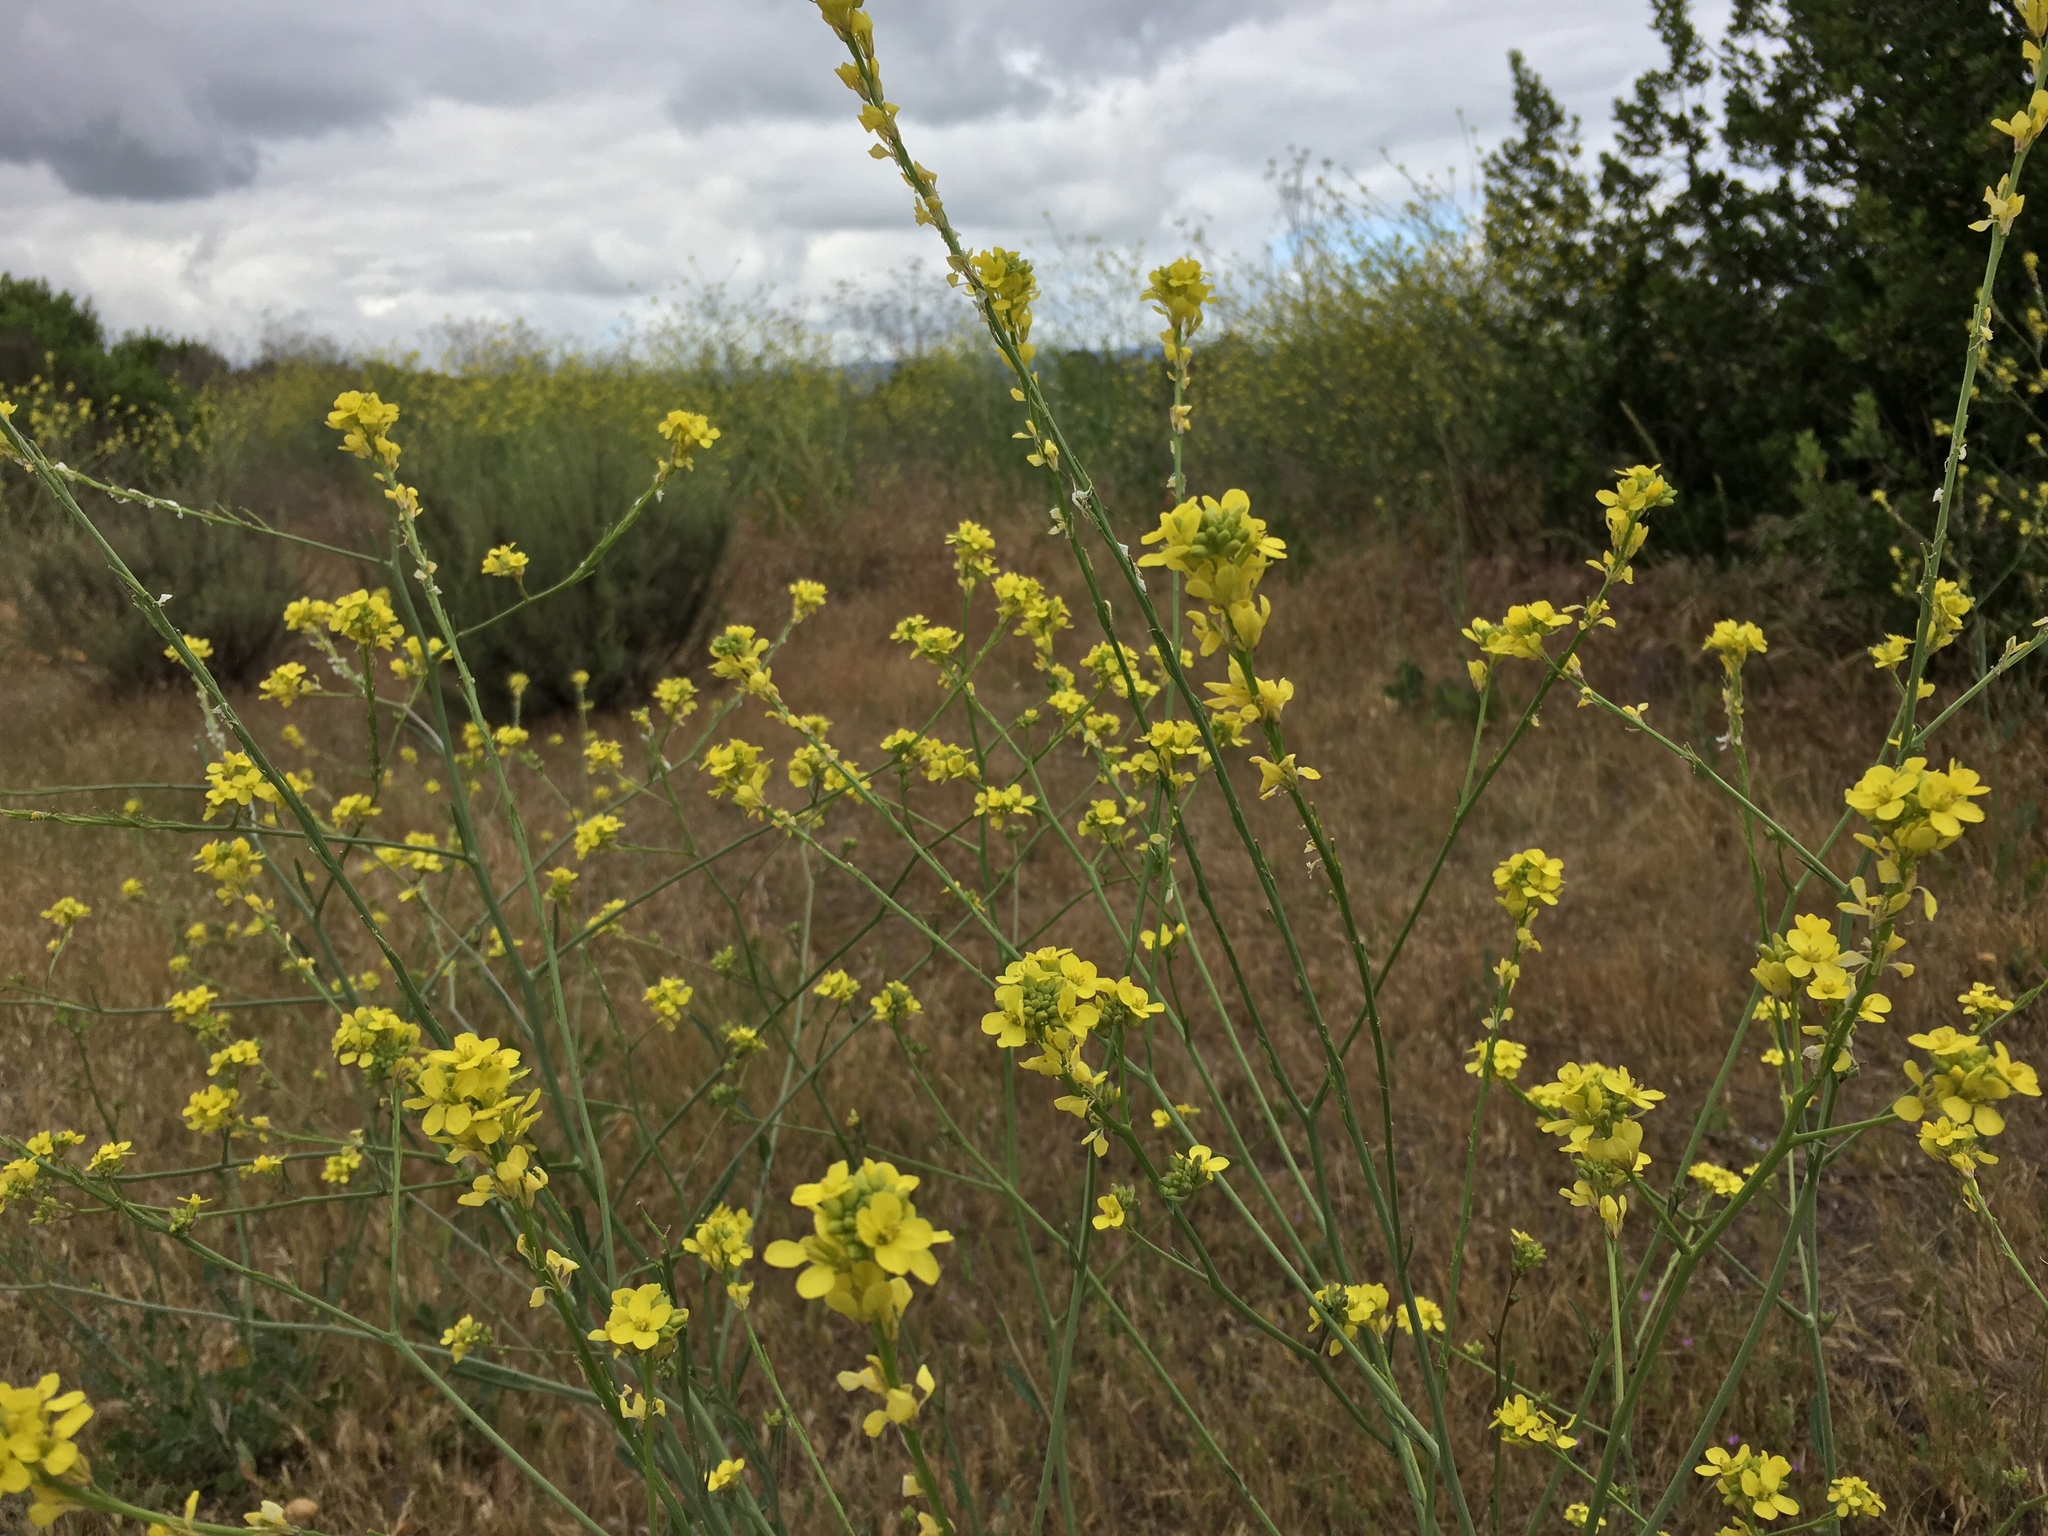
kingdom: Plantae
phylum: Tracheophyta
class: Magnoliopsida
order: Brassicales
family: Brassicaceae
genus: Hirschfeldia
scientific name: Hirschfeldia incana
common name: Hoary mustard
